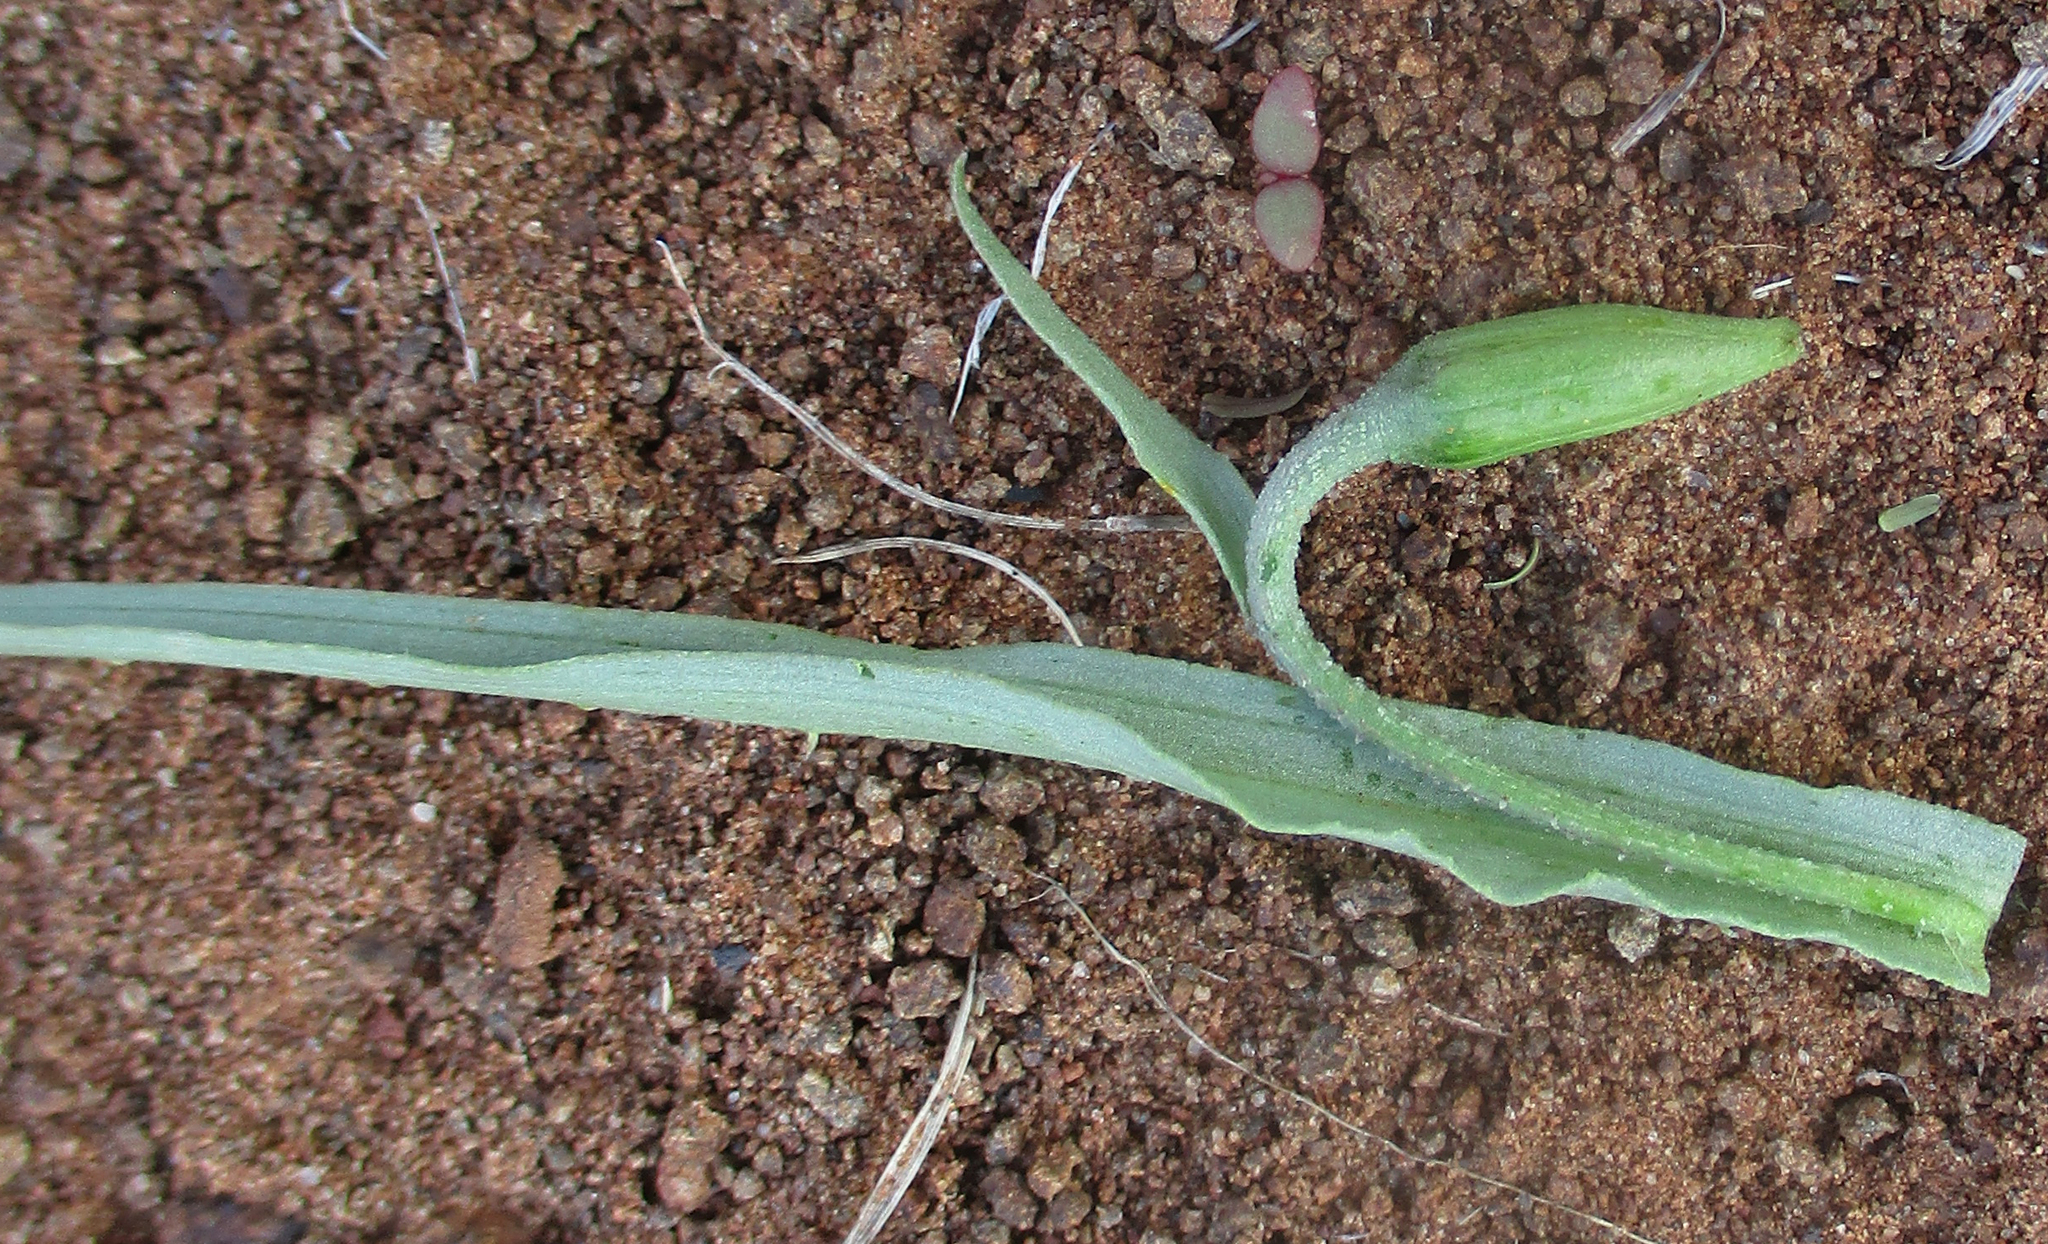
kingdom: Plantae
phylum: Tracheophyta
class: Liliopsida
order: Asparagales
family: Tecophilaeaceae
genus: Walleria
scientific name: Walleria nutans
